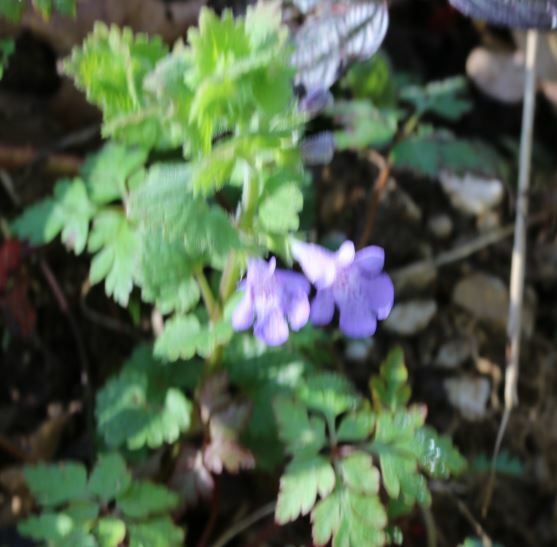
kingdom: Plantae
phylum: Tracheophyta
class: Magnoliopsida
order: Lamiales
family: Lamiaceae
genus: Glechoma
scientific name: Glechoma hederacea
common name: Ground ivy
